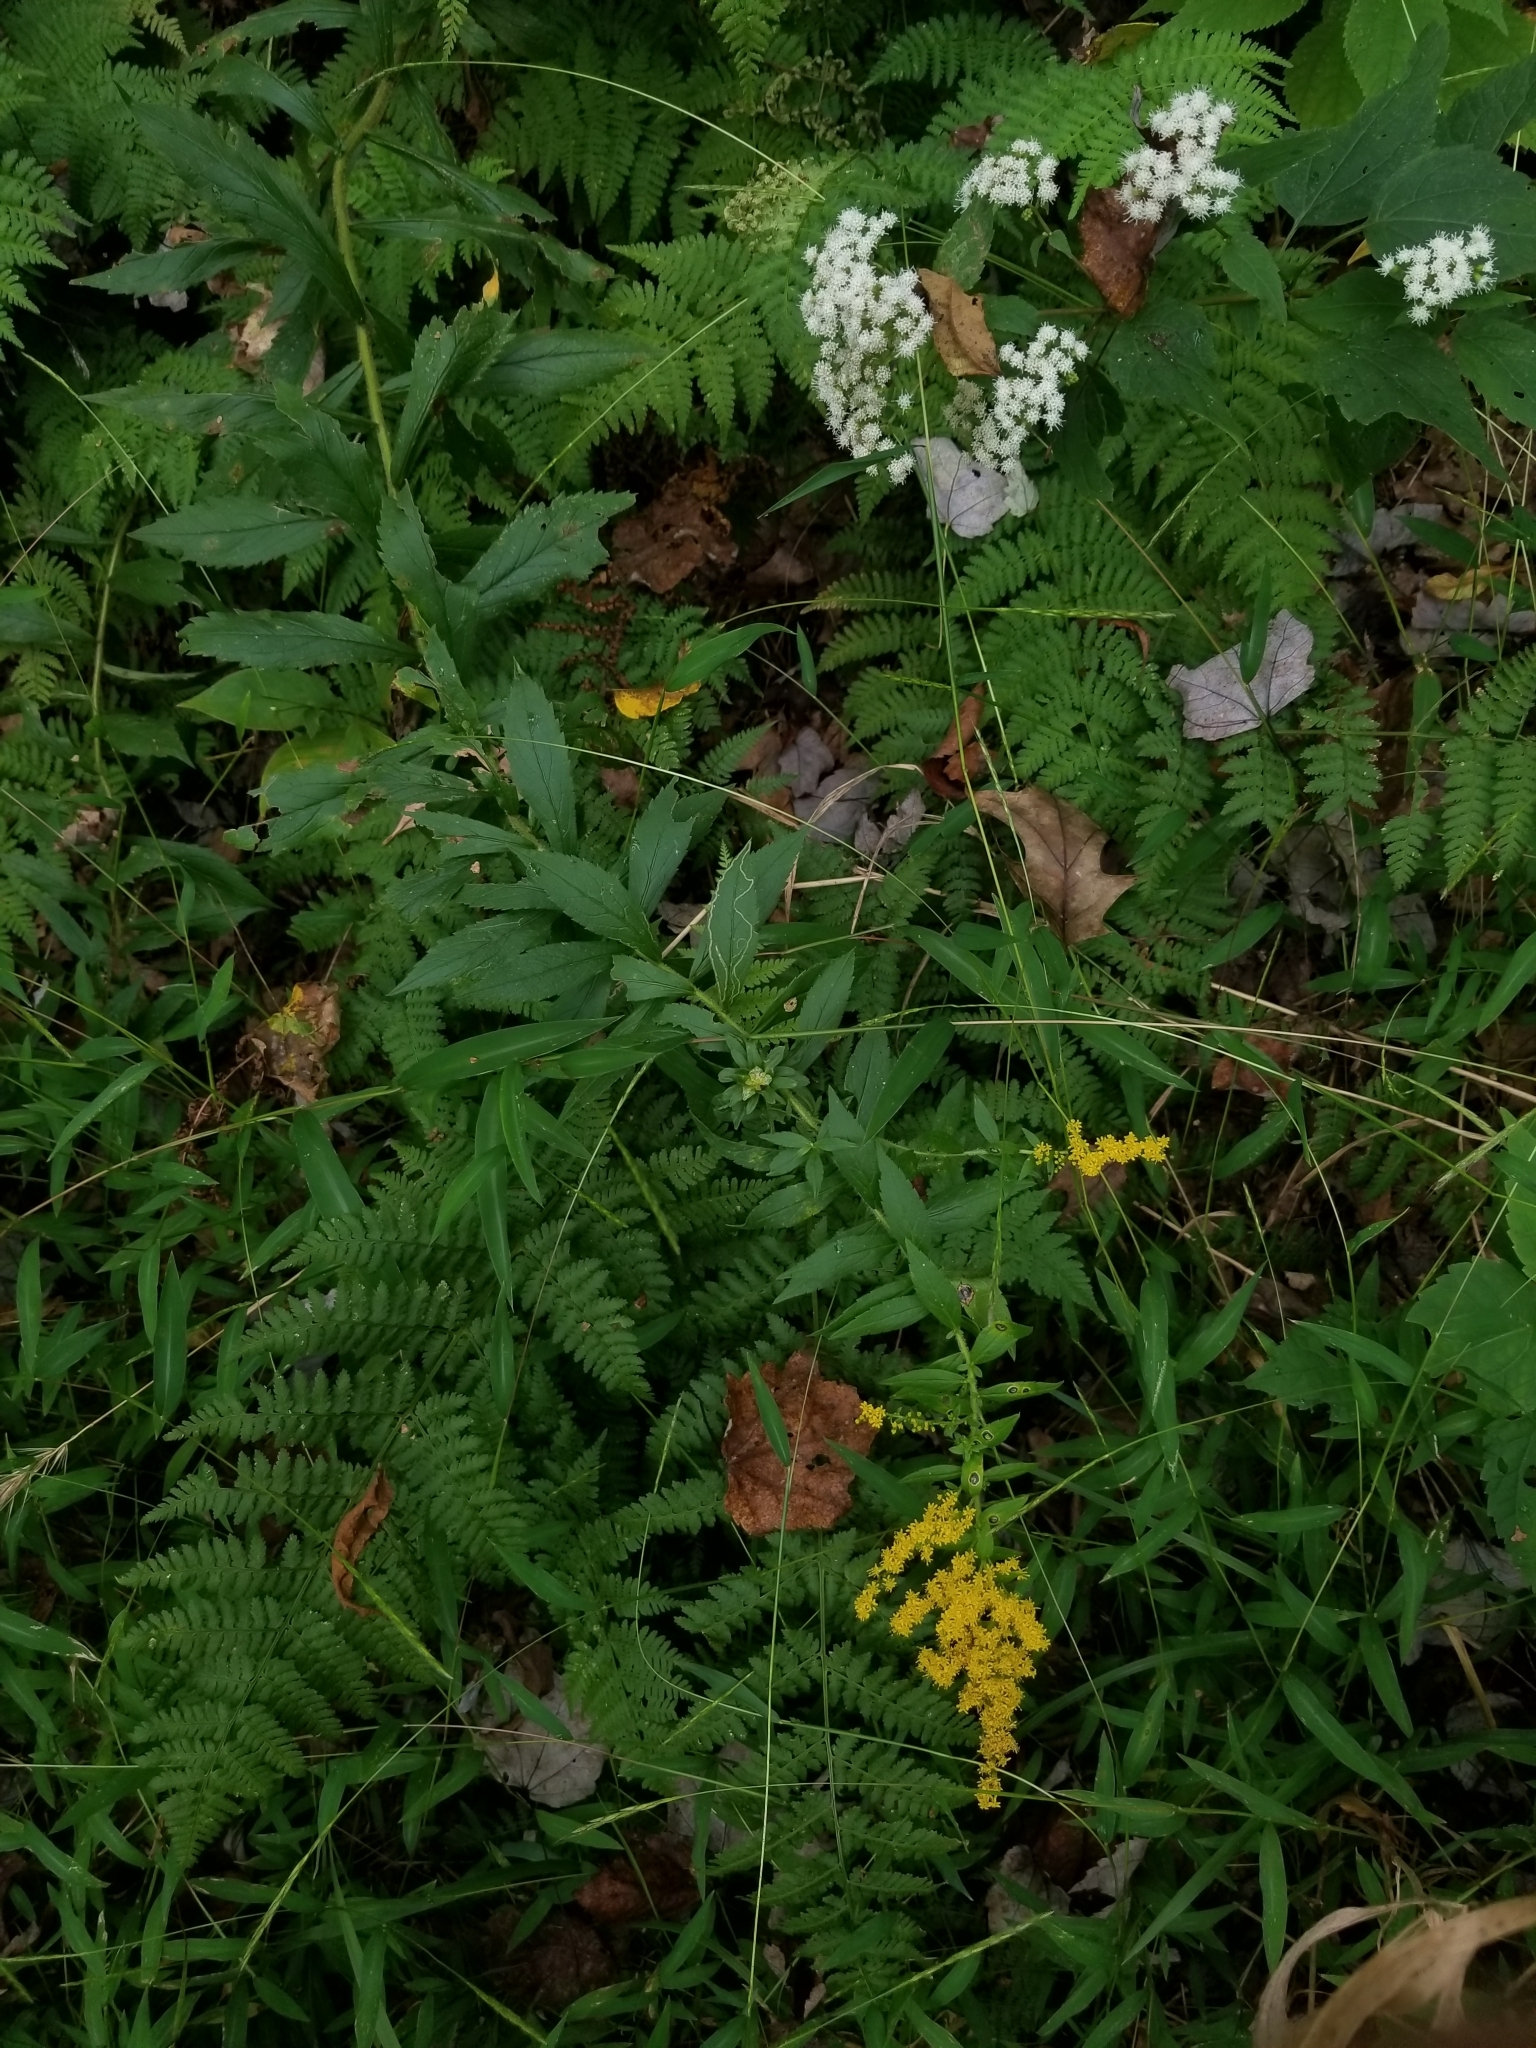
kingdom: Plantae
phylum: Tracheophyta
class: Magnoliopsida
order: Asterales
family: Asteraceae
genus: Solidago
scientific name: Solidago rugosa
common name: Rough-stemmed goldenrod
